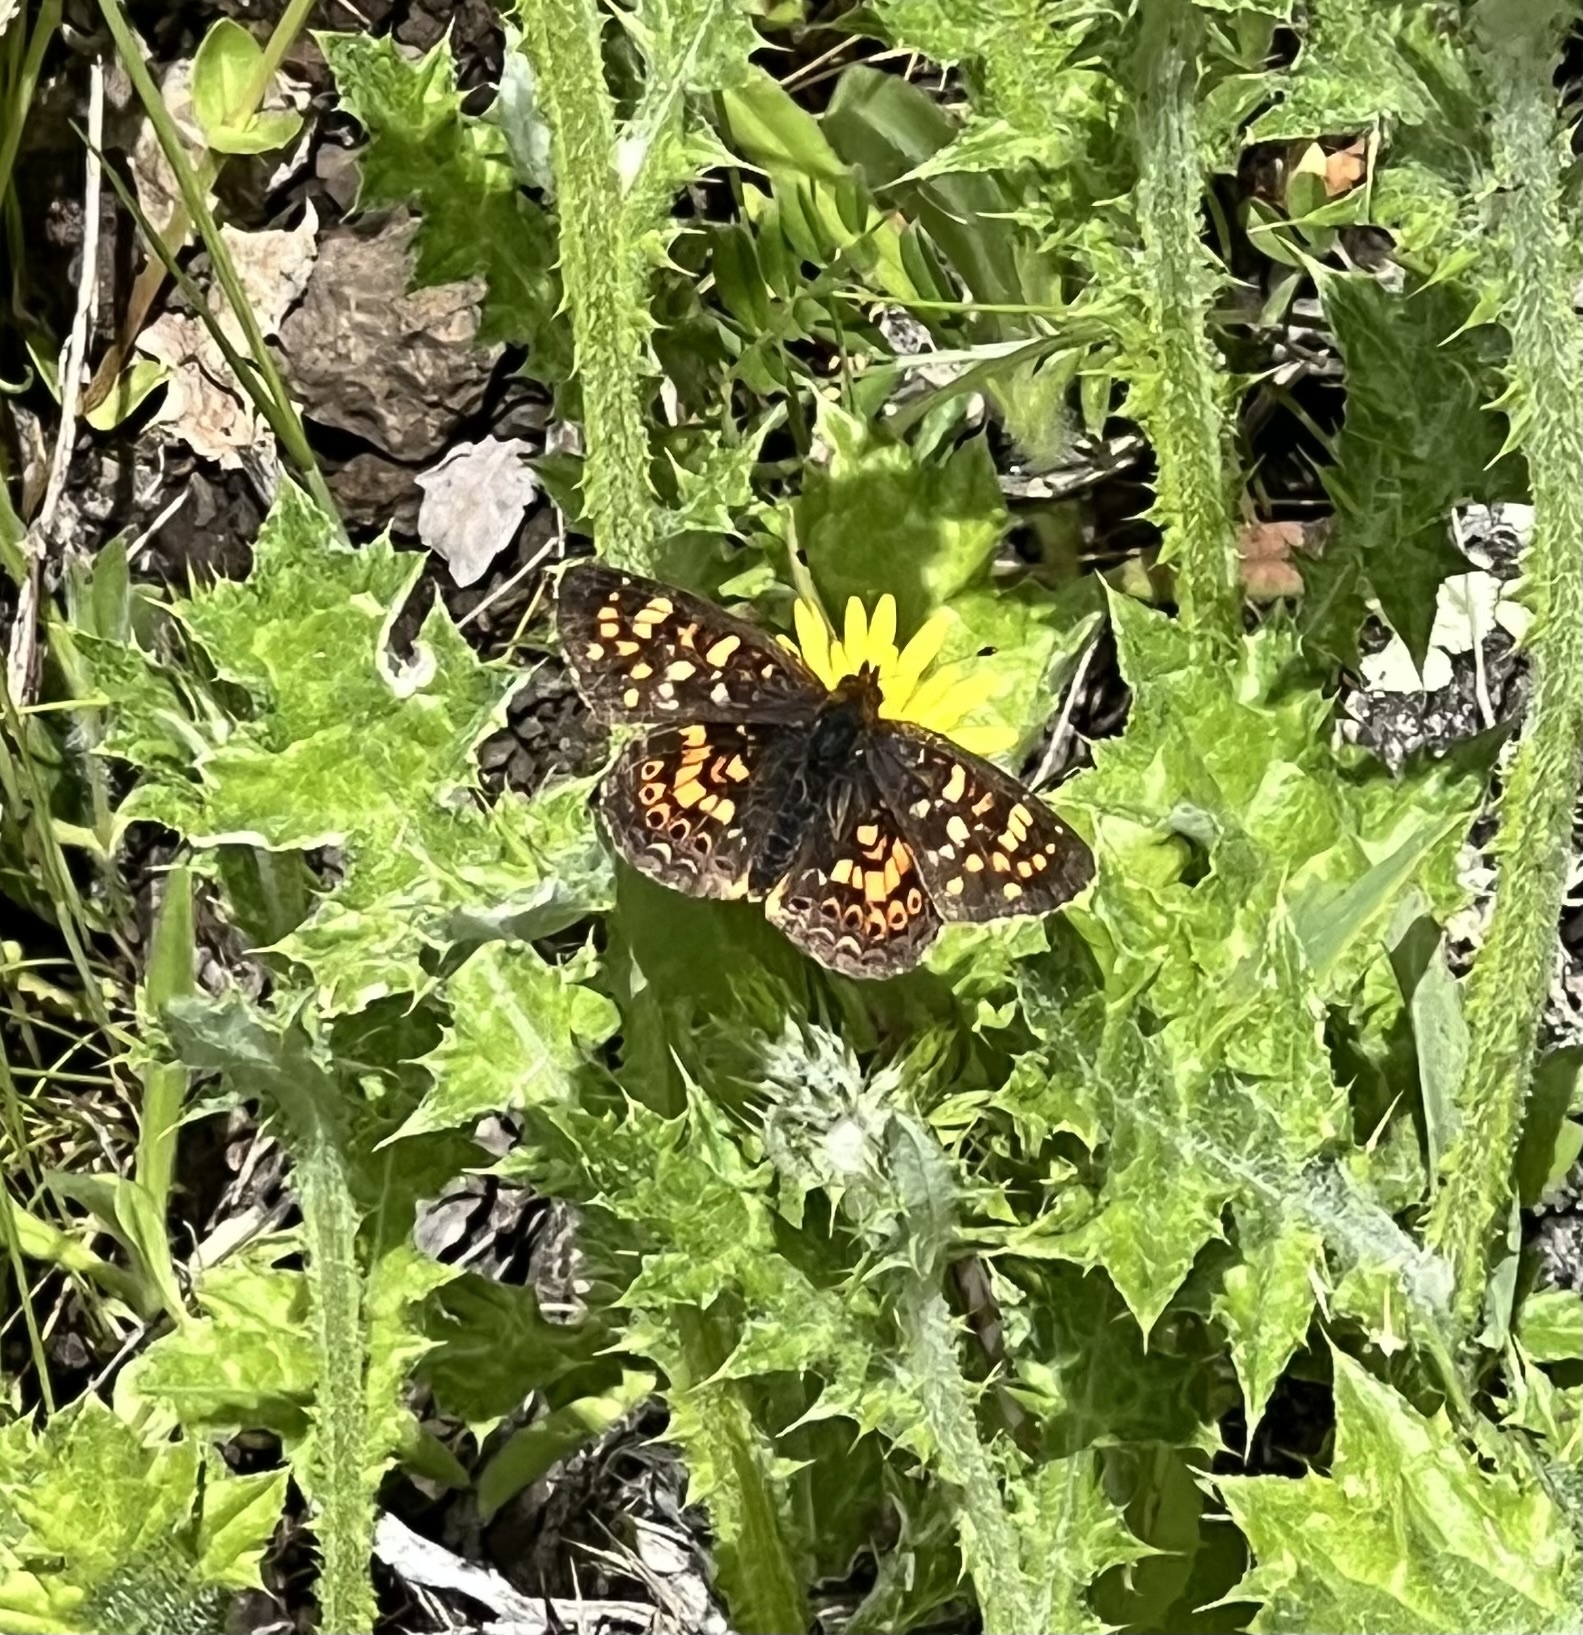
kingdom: Animalia
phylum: Arthropoda
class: Insecta
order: Lepidoptera
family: Nymphalidae
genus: Phyciodes
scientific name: Phyciodes tharos
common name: Pearl crescent
